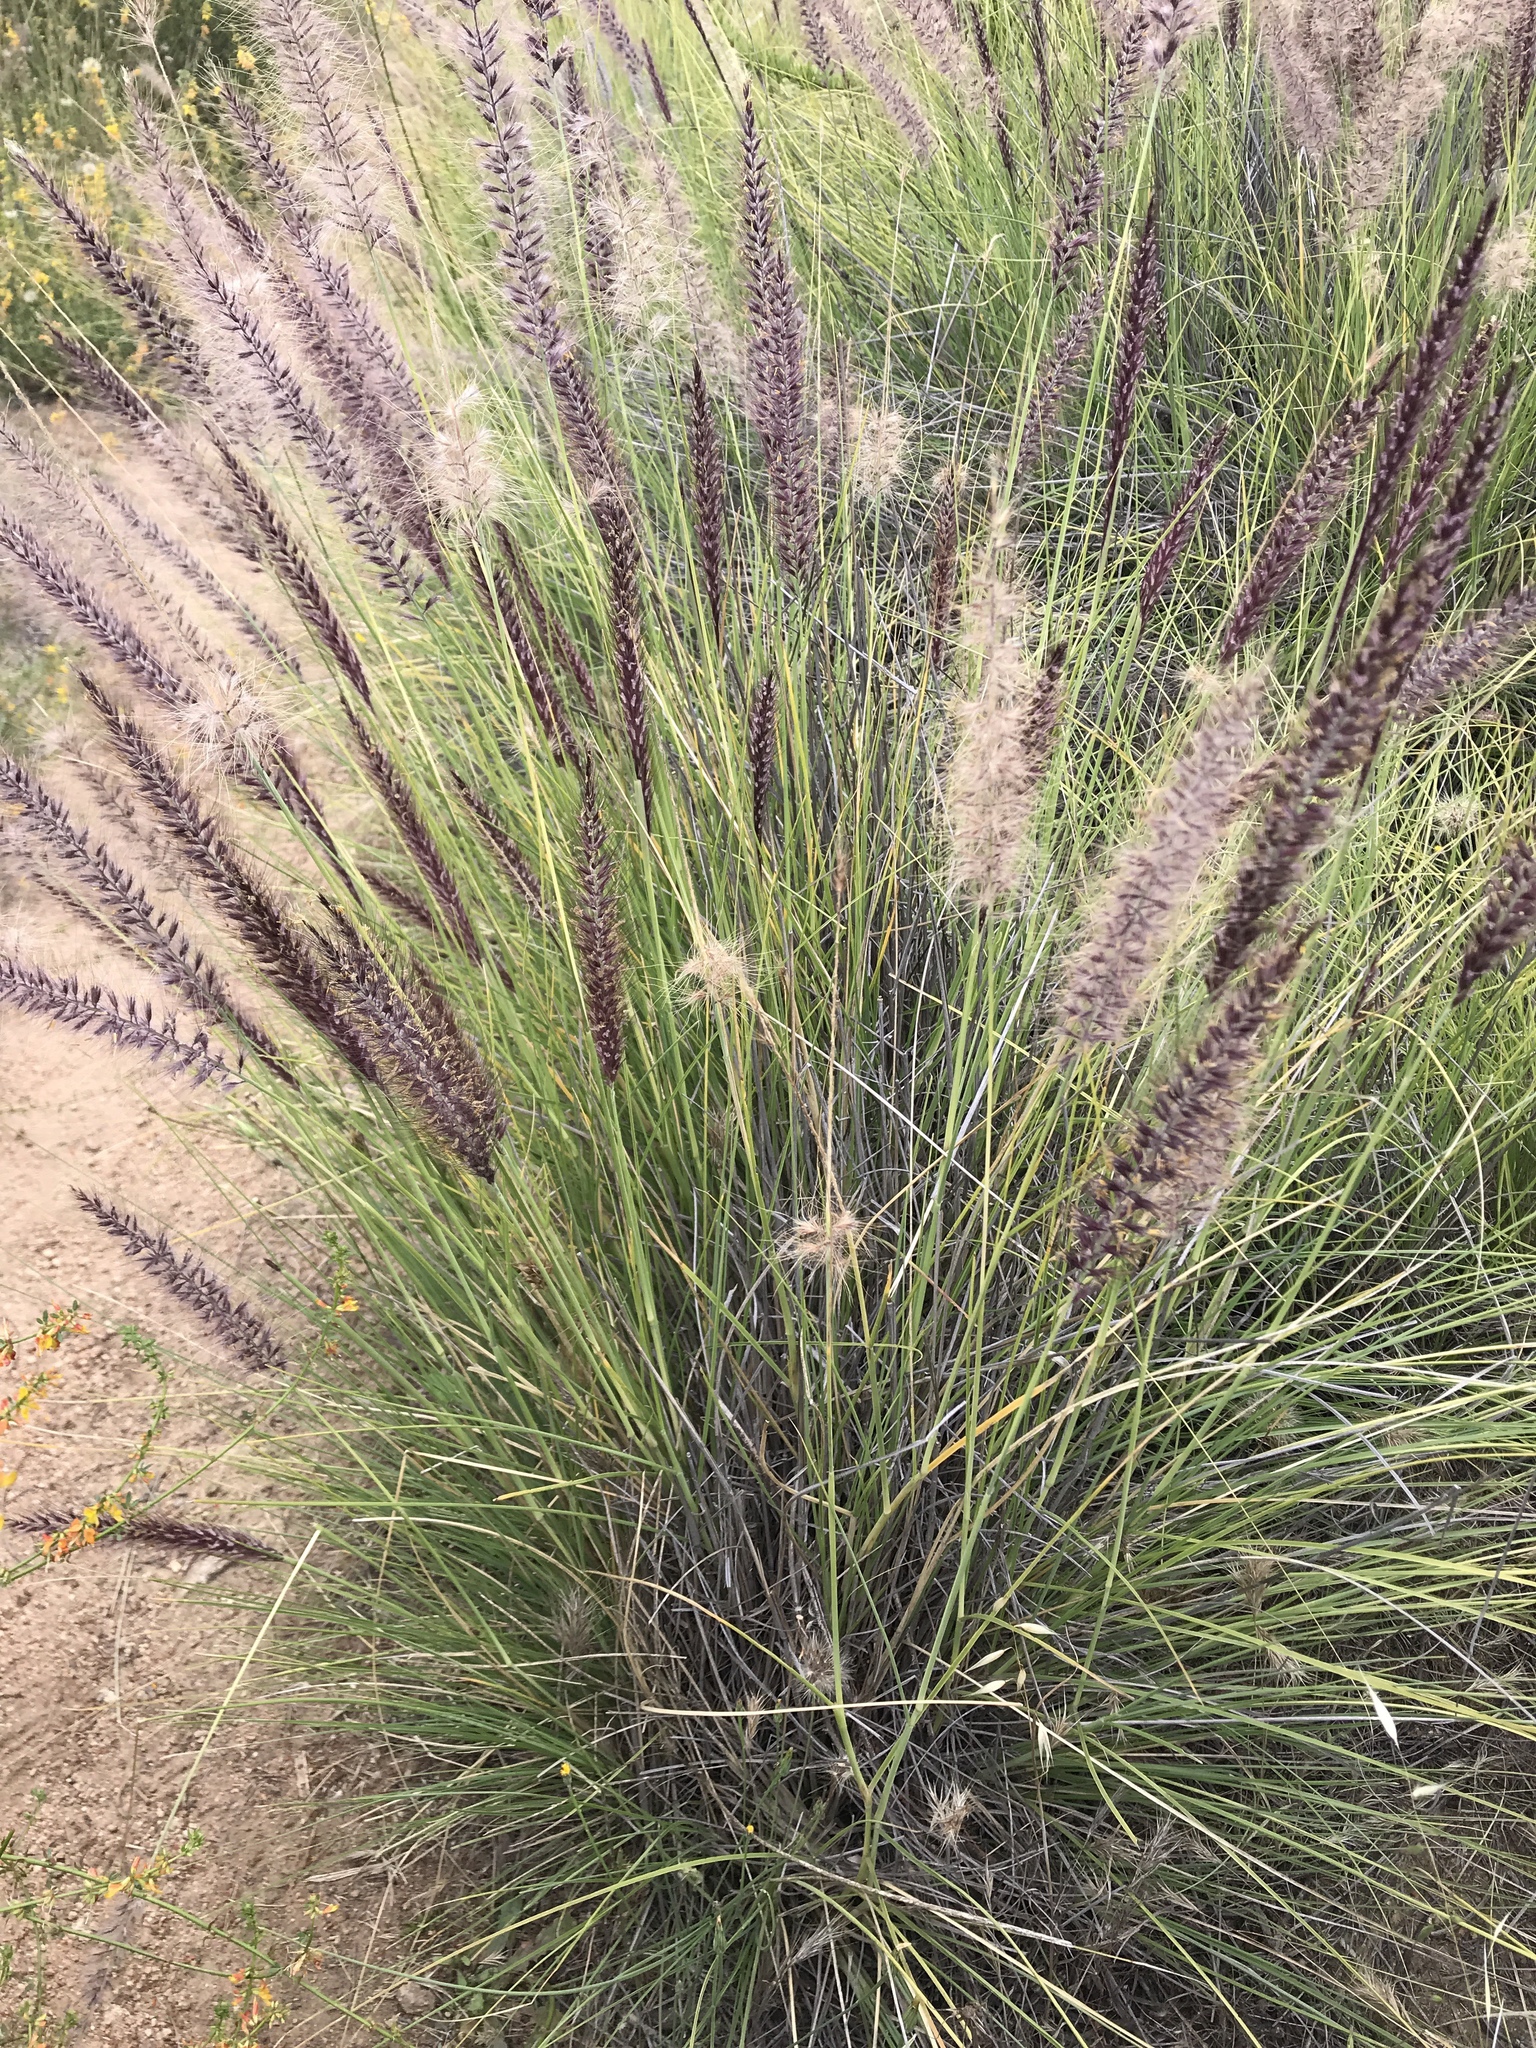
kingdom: Plantae
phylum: Tracheophyta
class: Liliopsida
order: Poales
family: Poaceae
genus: Cenchrus
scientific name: Cenchrus setaceus
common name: Crimson fountaingrass
